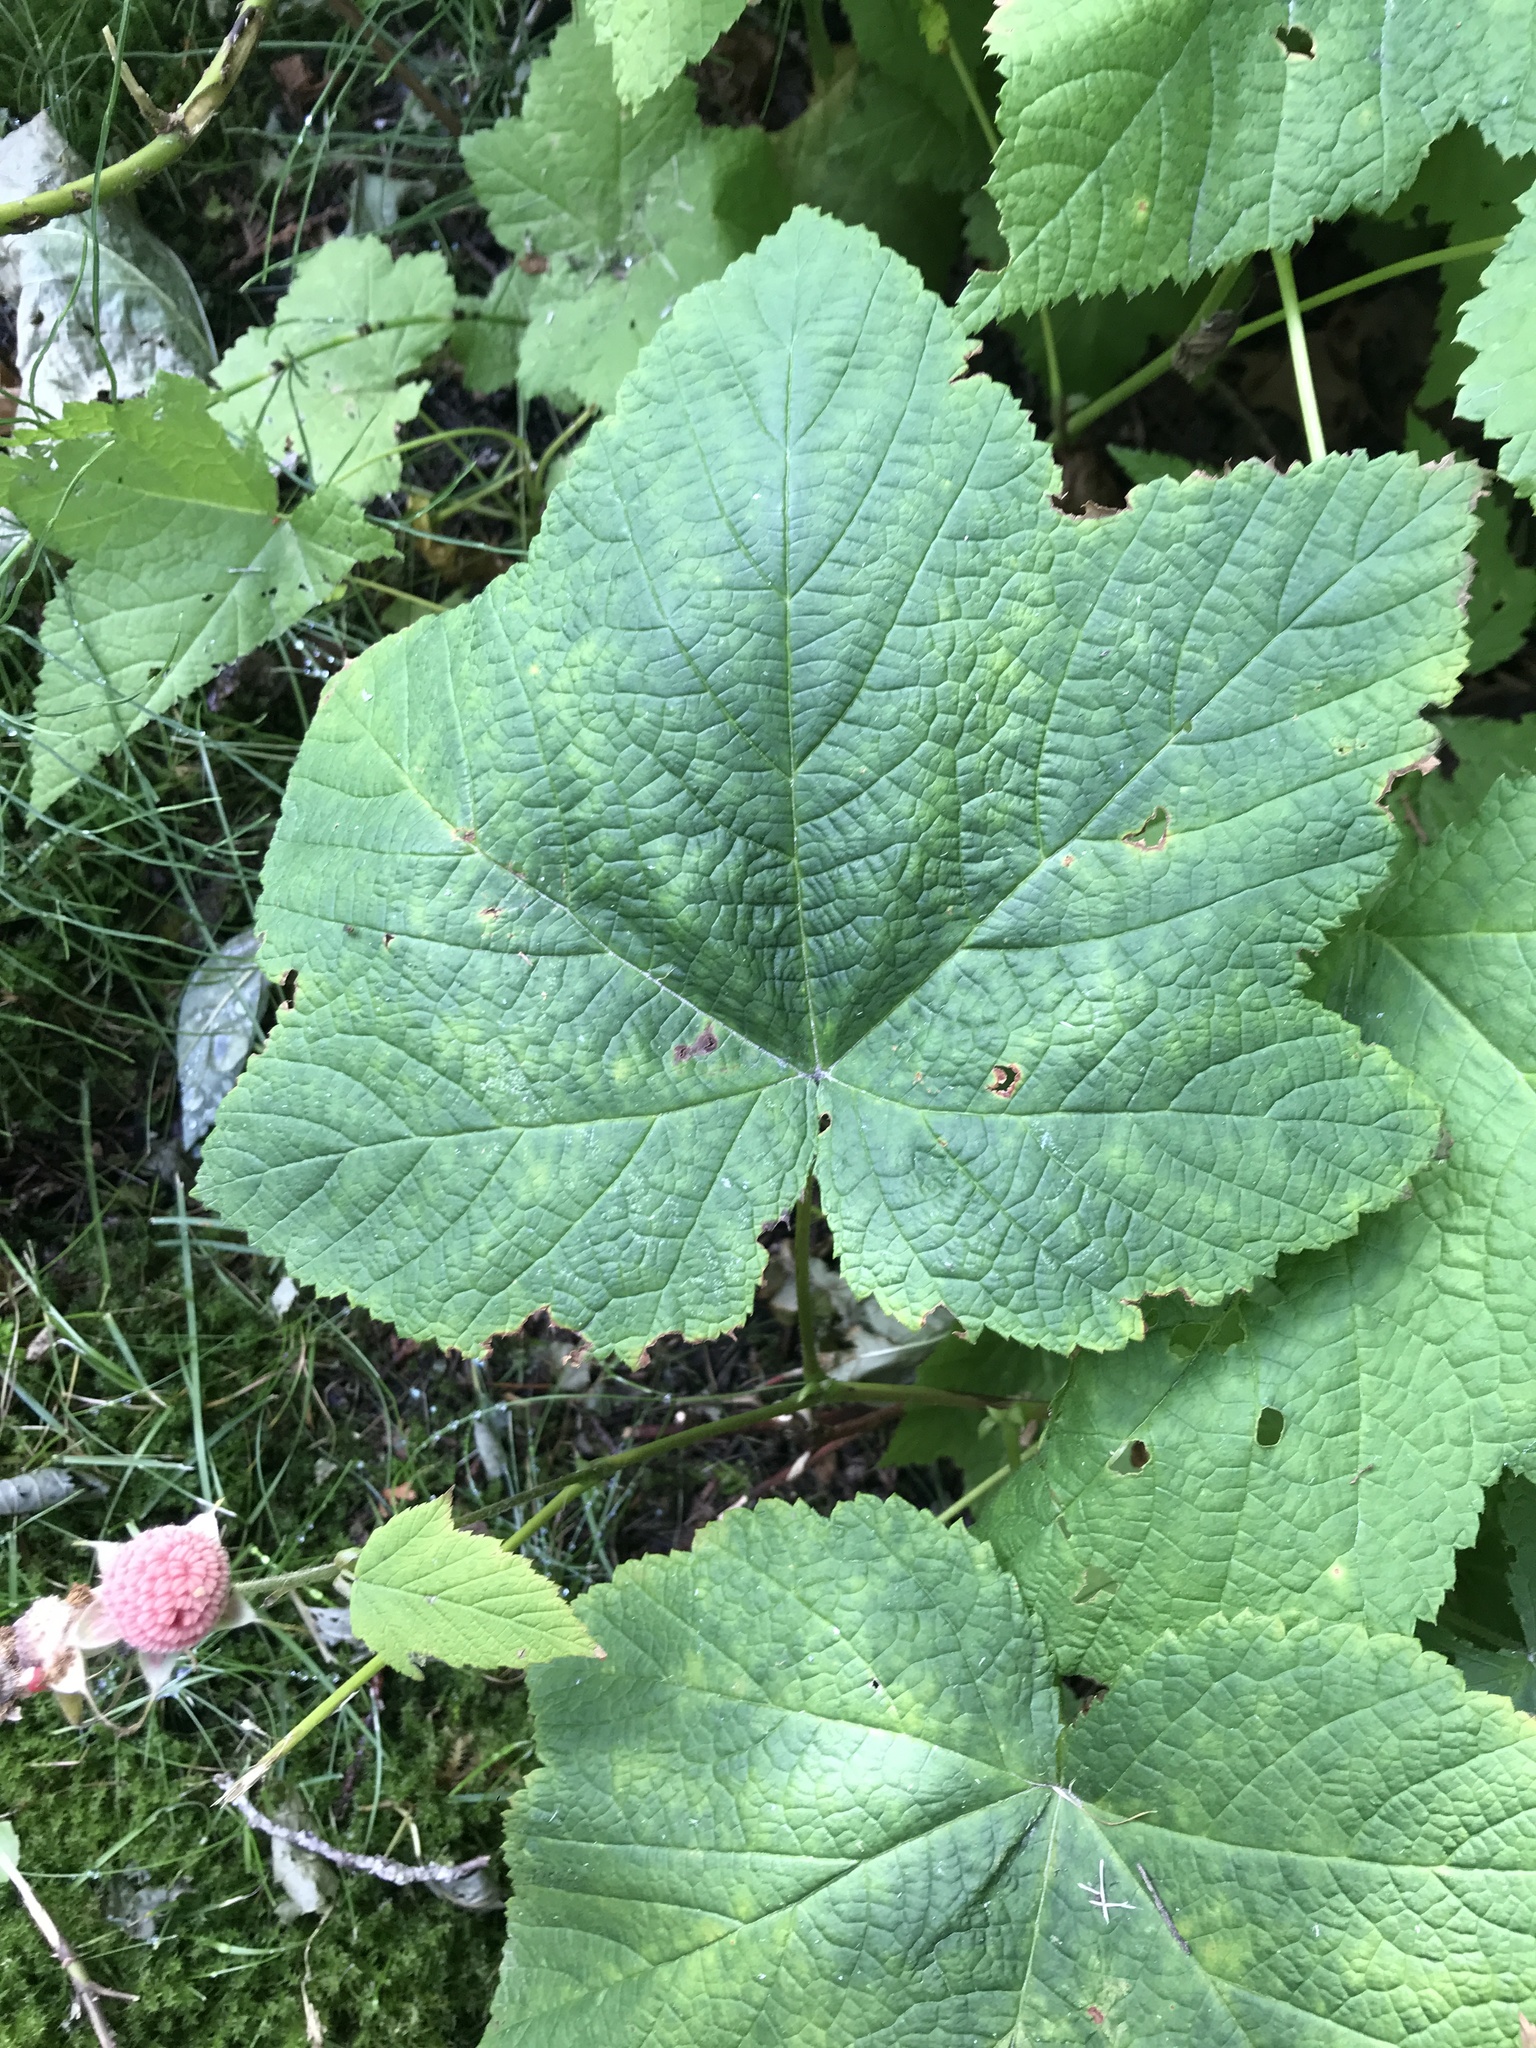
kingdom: Plantae
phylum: Tracheophyta
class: Magnoliopsida
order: Rosales
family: Rosaceae
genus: Rubus
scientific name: Rubus parviflorus
